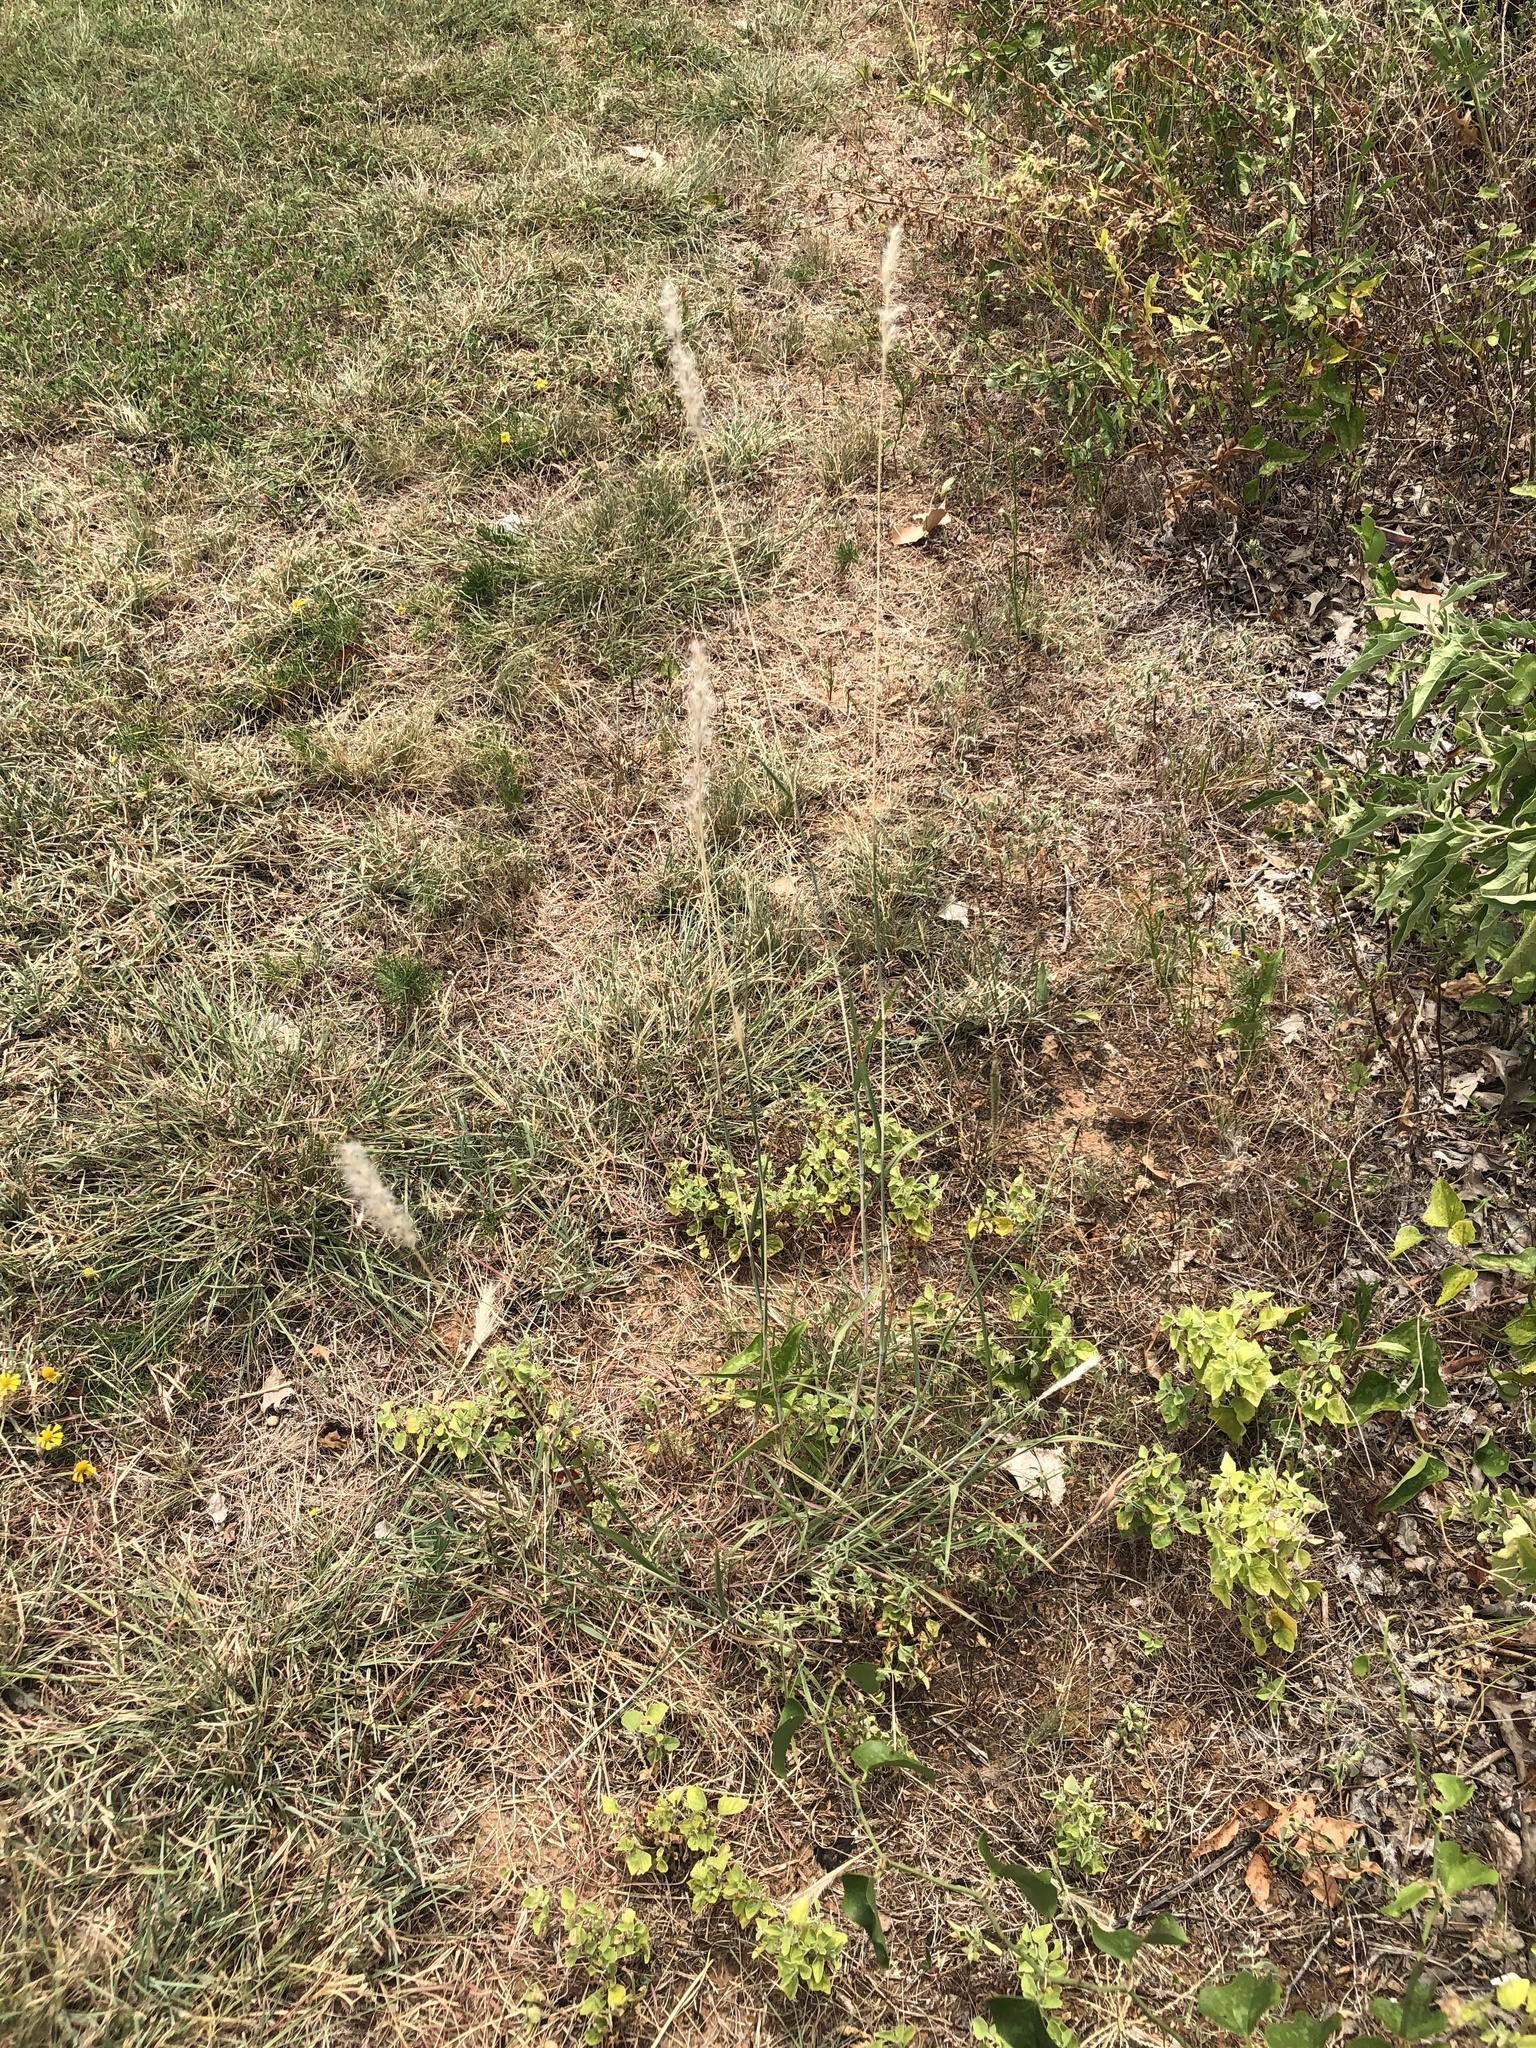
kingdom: Plantae
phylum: Tracheophyta
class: Liliopsida
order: Poales
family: Poaceae
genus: Bothriochloa
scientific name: Bothriochloa torreyana
